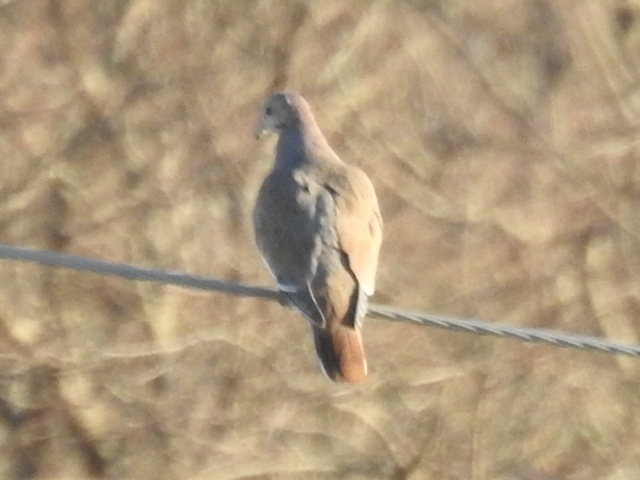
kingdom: Animalia
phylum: Chordata
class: Aves
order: Columbiformes
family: Columbidae
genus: Zenaida
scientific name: Zenaida asiatica
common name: White-winged dove
